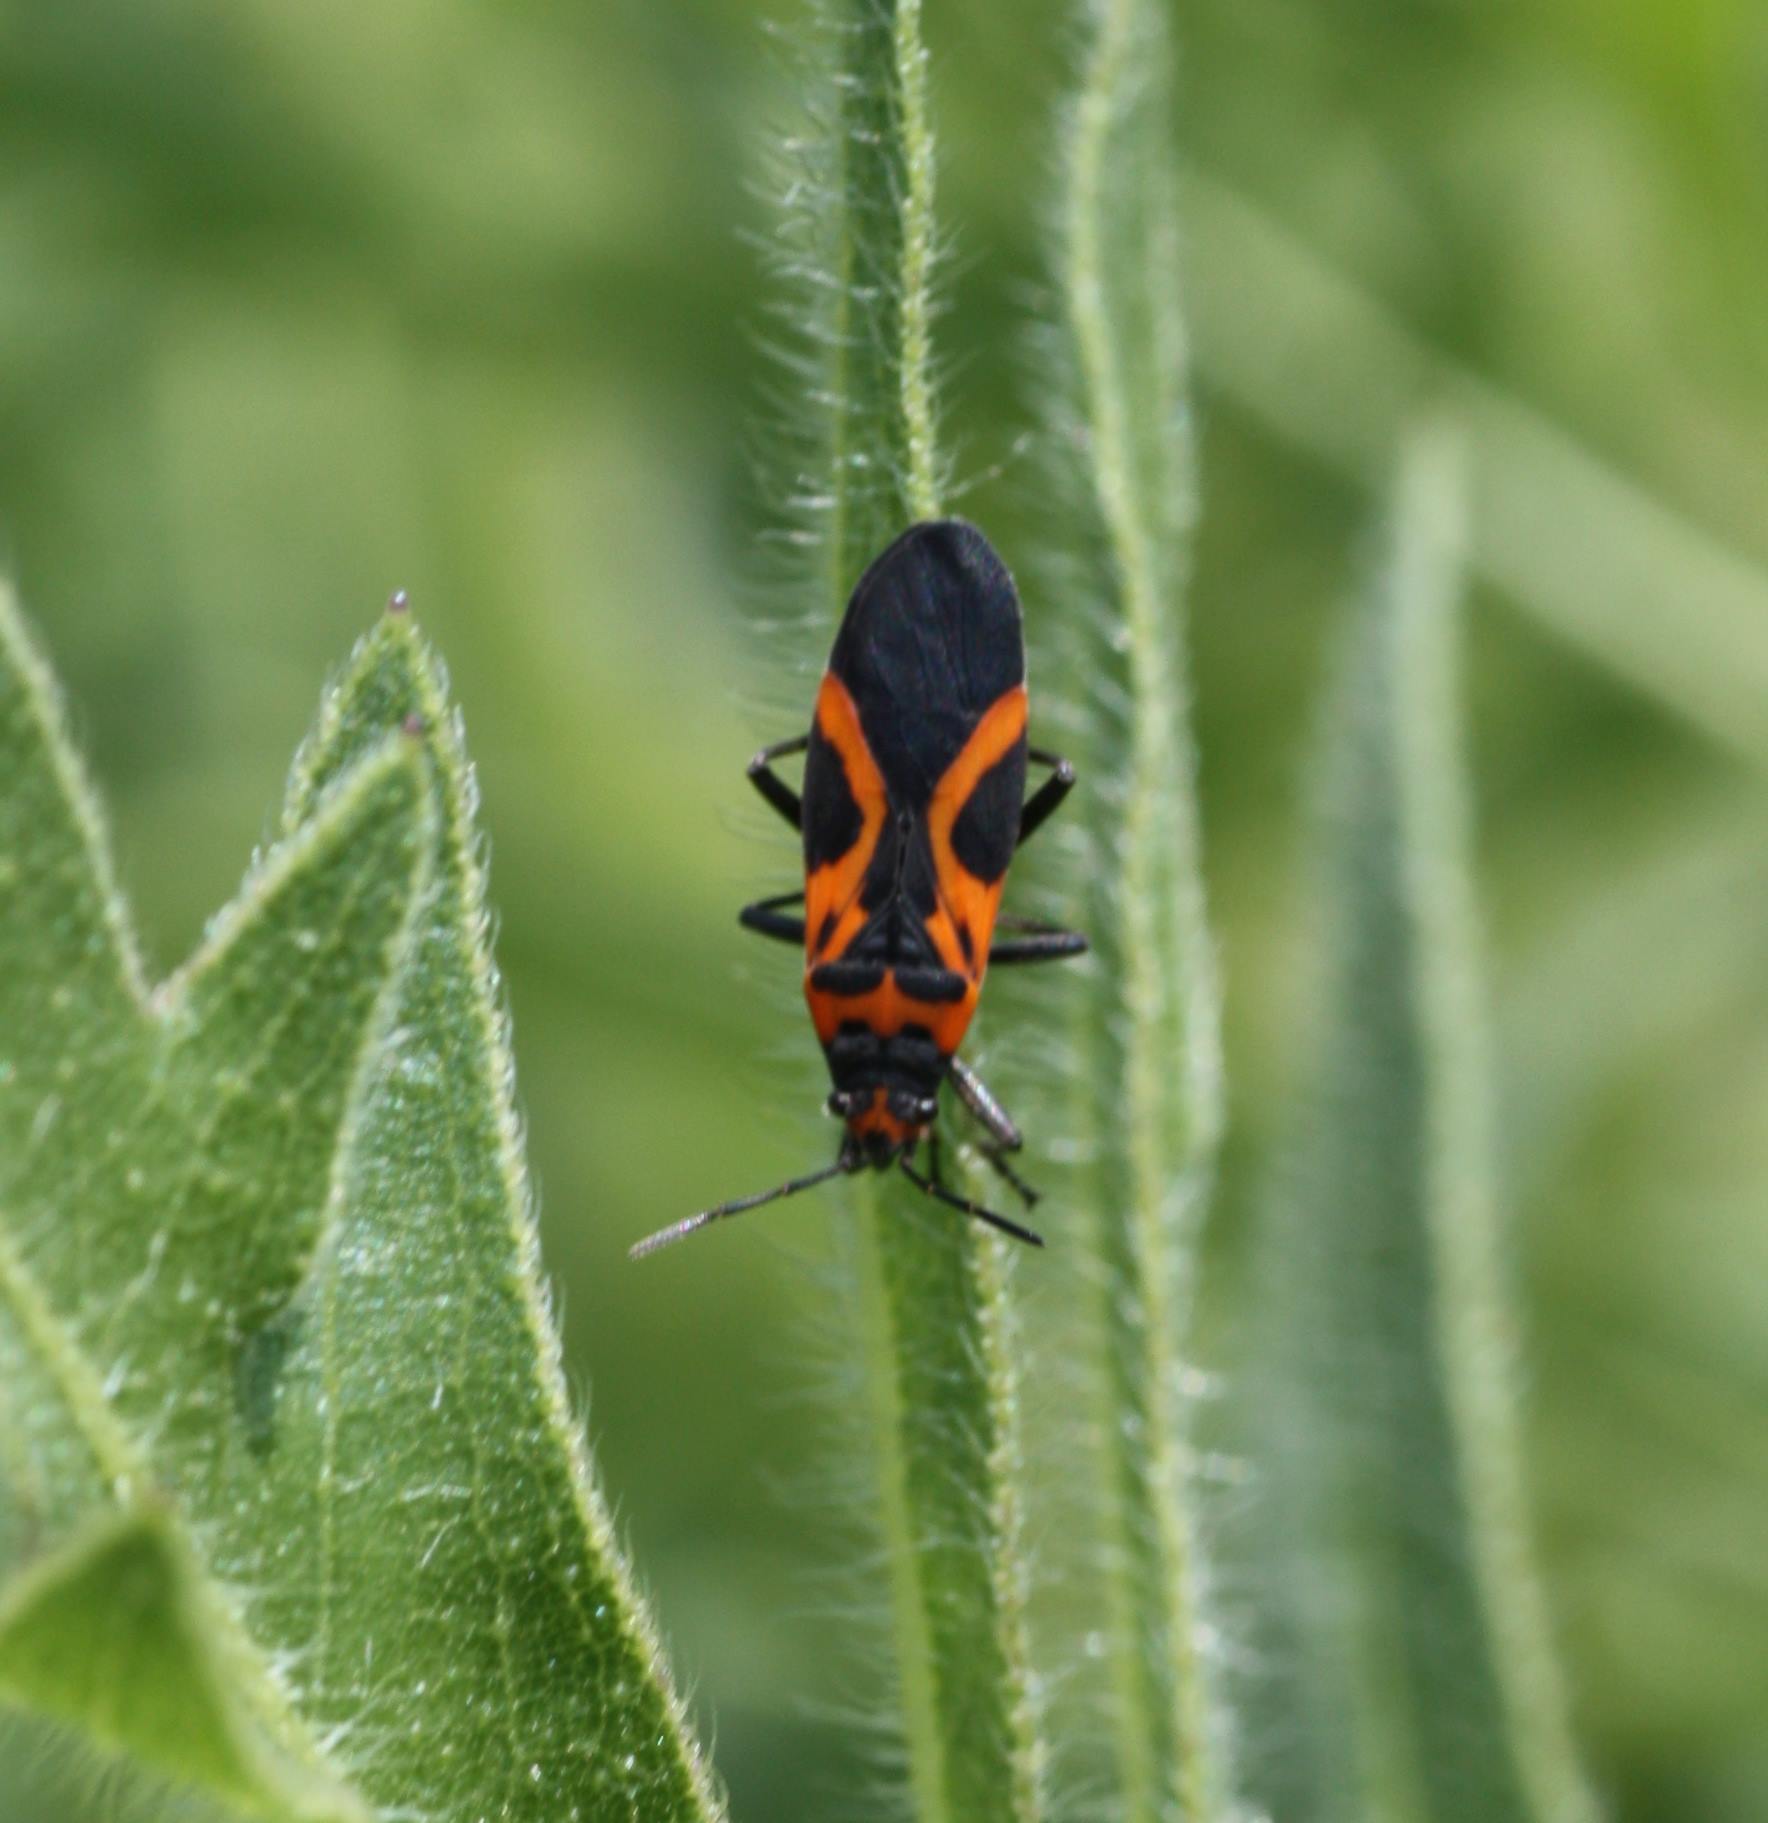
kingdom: Animalia
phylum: Arthropoda
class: Insecta
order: Hemiptera
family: Lygaeidae
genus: Lygaeus
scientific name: Lygaeus turcicus
